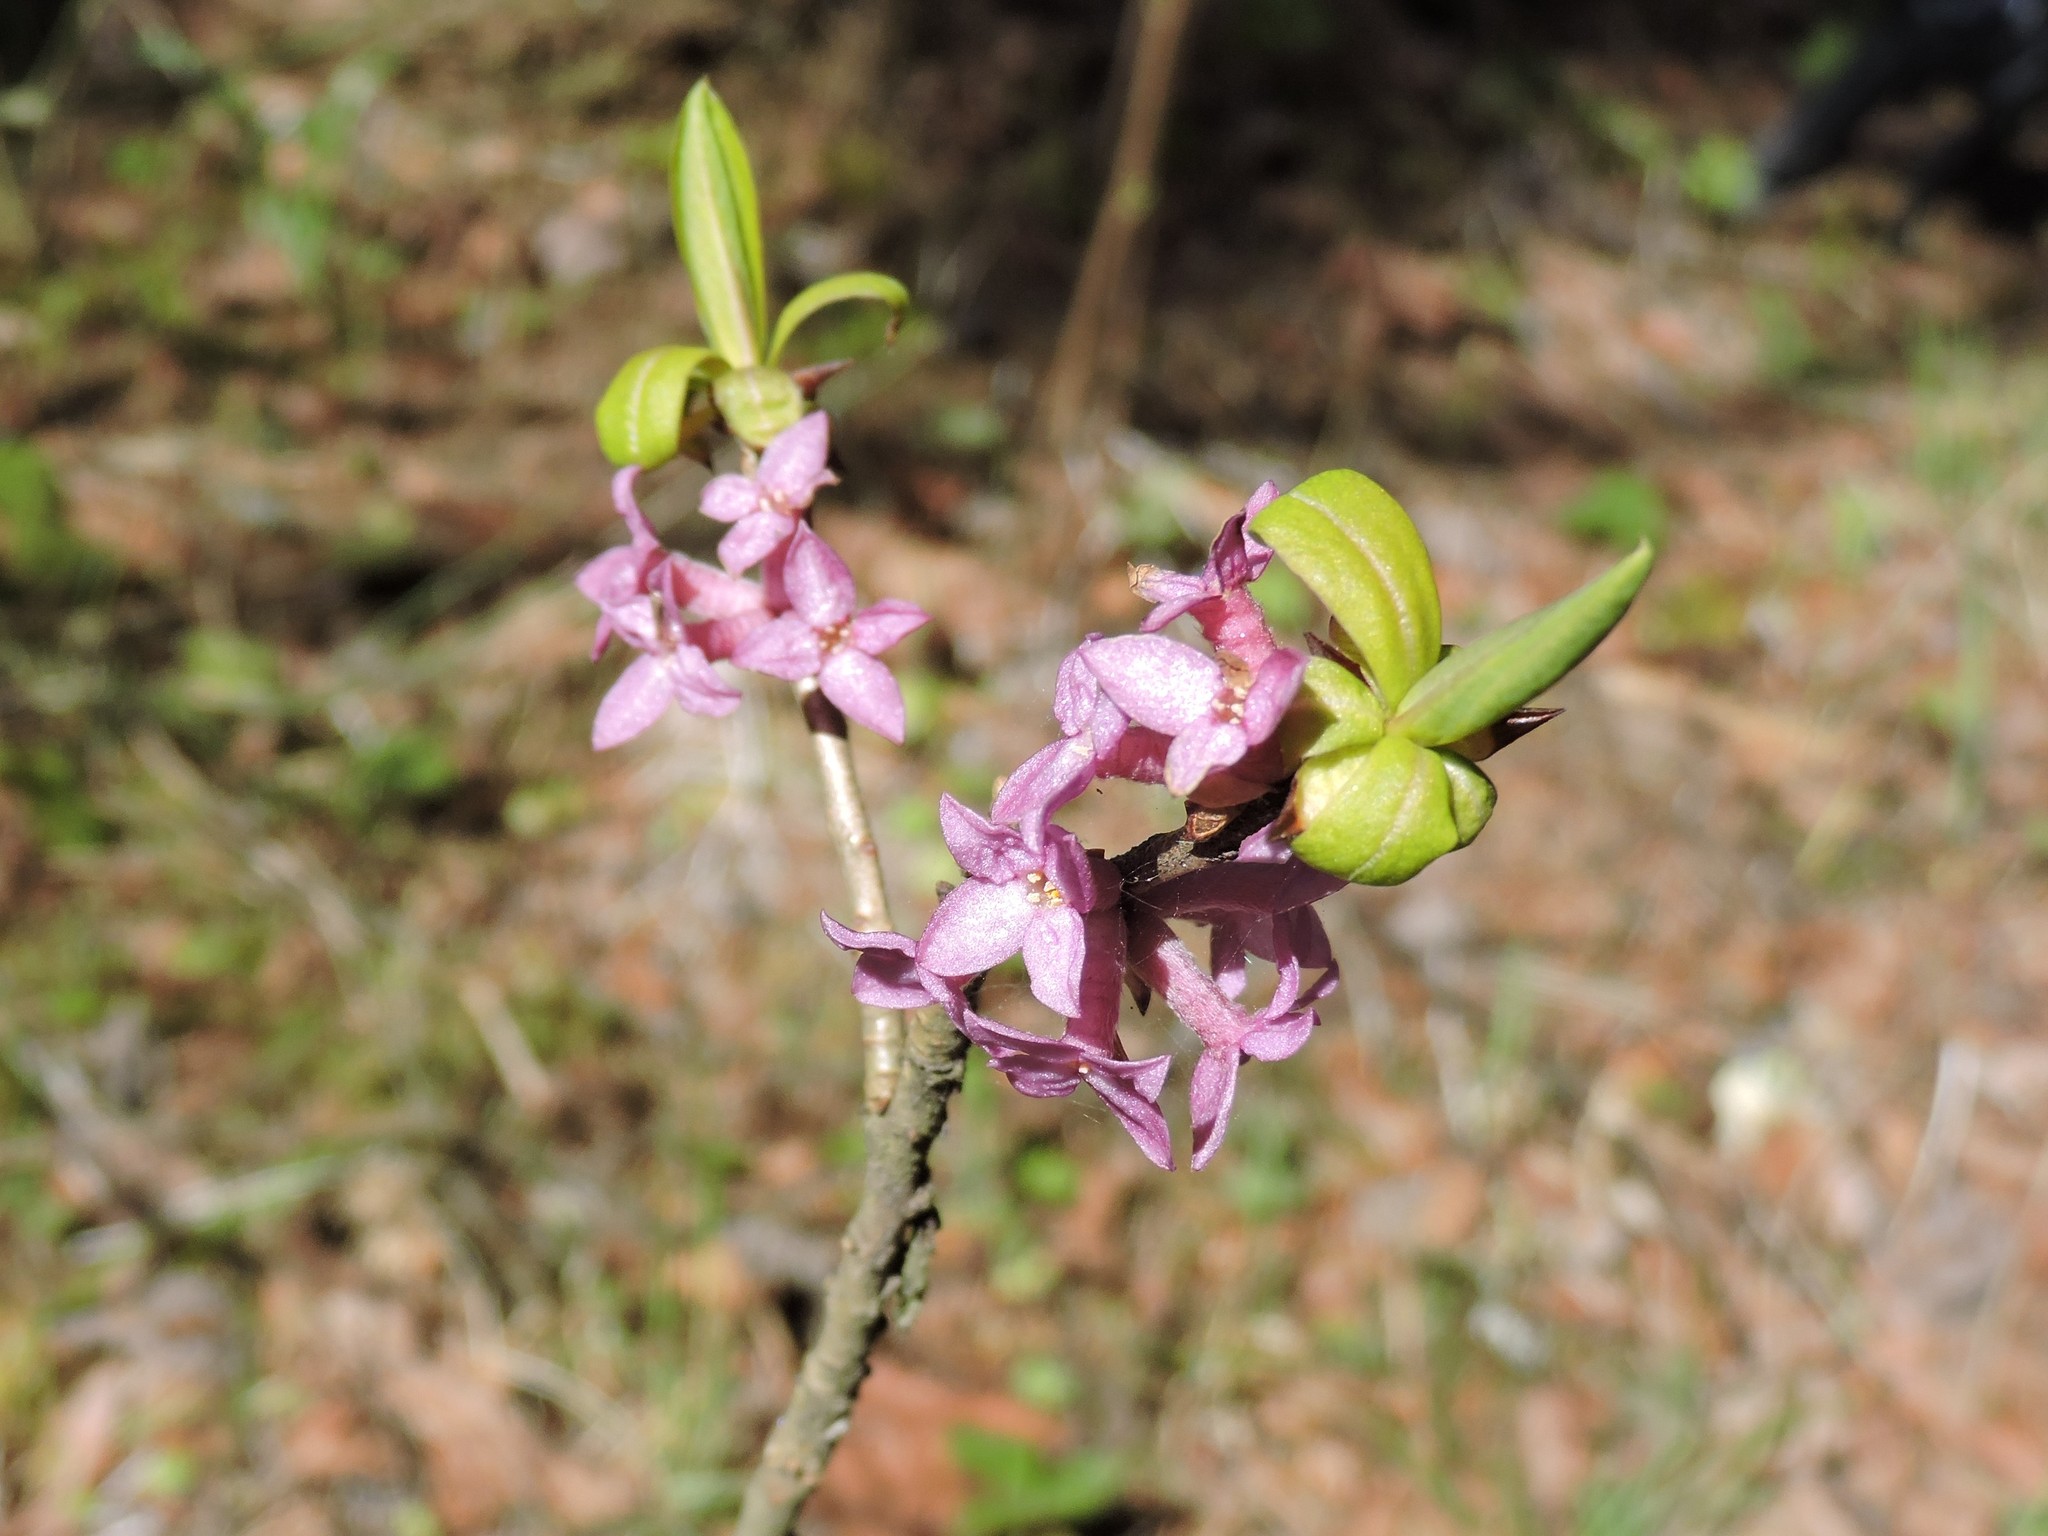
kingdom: Plantae
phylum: Tracheophyta
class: Magnoliopsida
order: Malvales
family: Thymelaeaceae
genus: Daphne
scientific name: Daphne mezereum
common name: Mezereon
